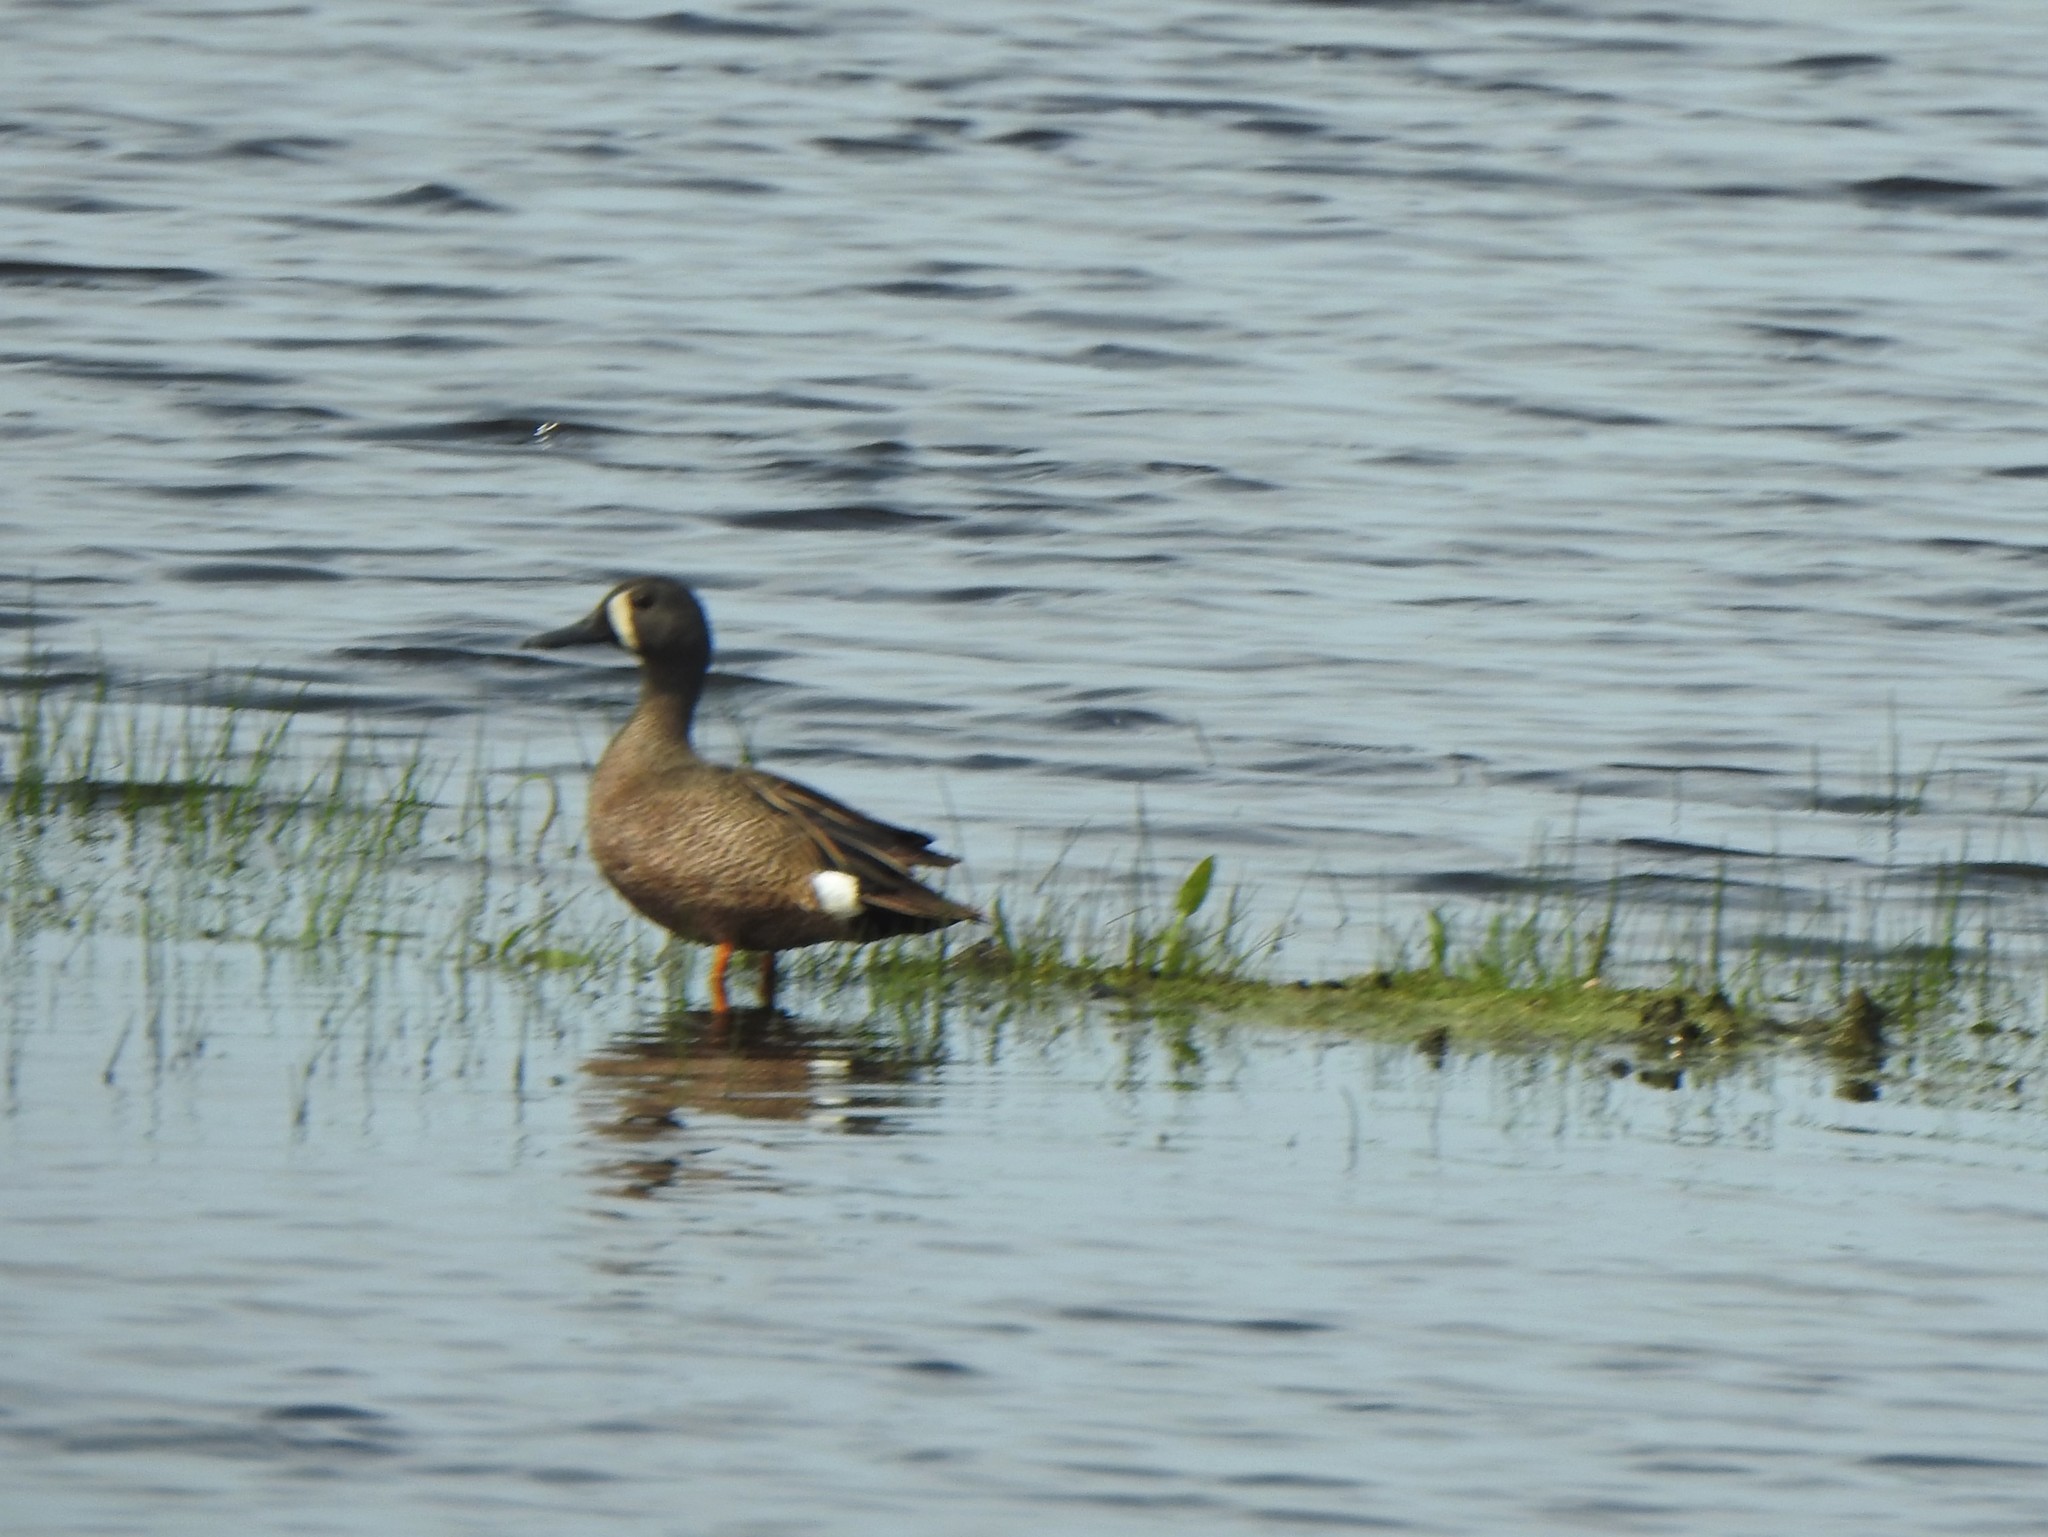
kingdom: Animalia
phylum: Chordata
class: Aves
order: Anseriformes
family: Anatidae
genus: Spatula
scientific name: Spatula discors
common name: Blue-winged teal
